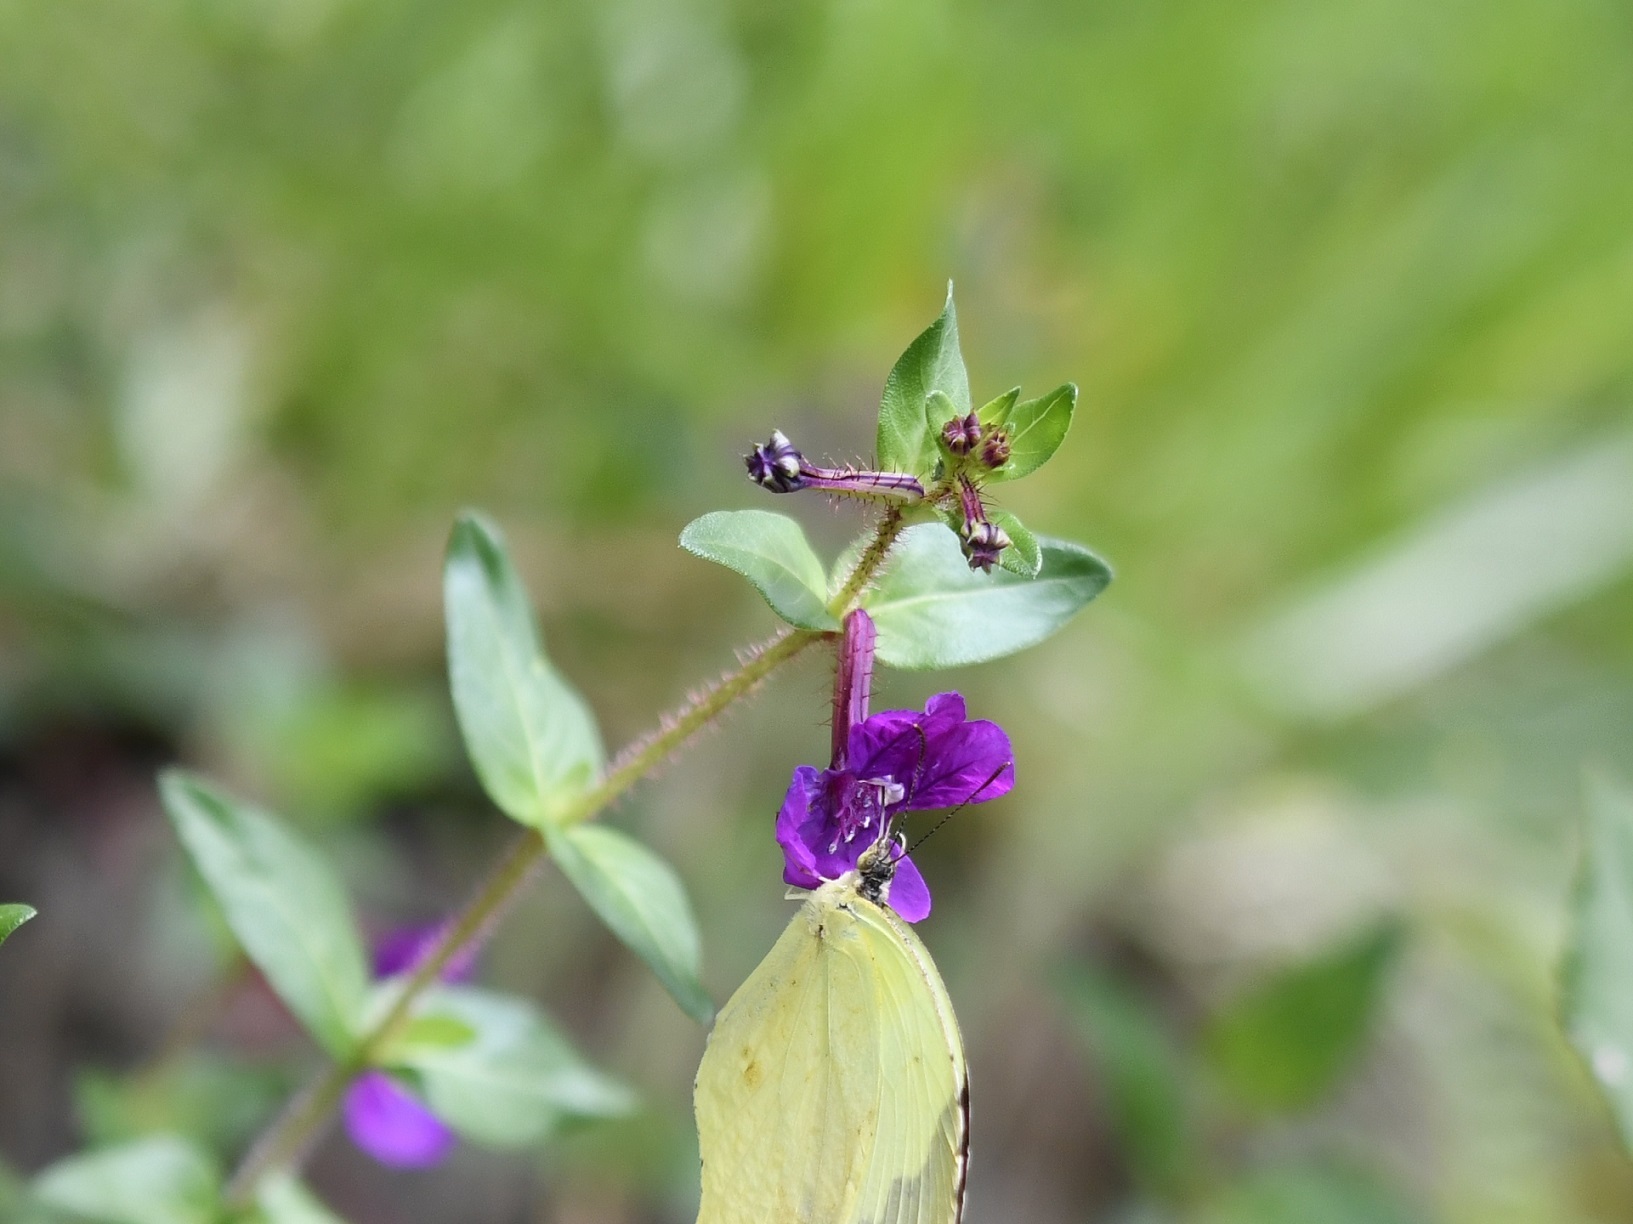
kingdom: Plantae
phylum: Tracheophyta
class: Magnoliopsida
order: Myrtales
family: Lythraceae
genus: Cuphea
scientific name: Cuphea aequipetala
